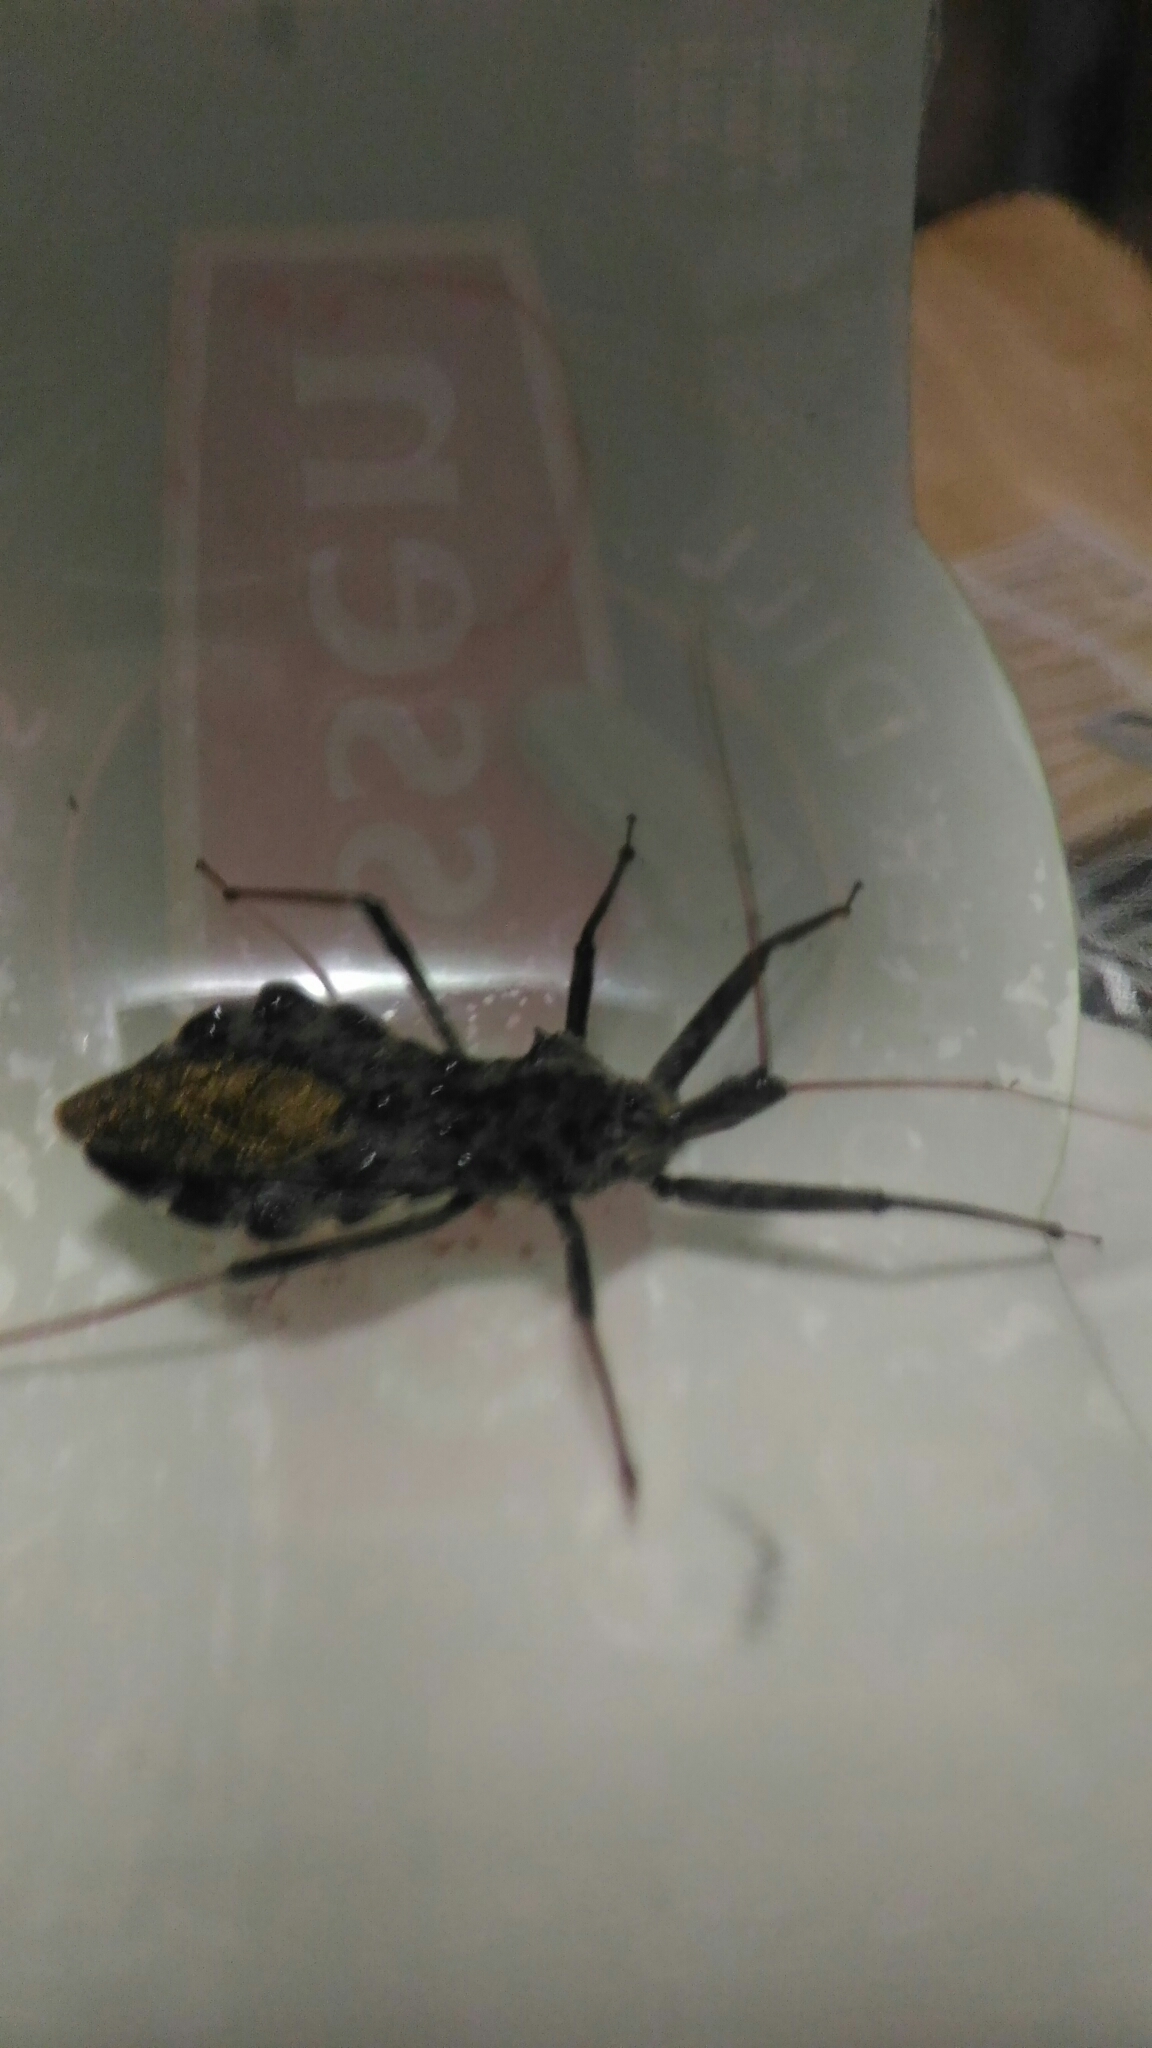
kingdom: Animalia
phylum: Arthropoda
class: Insecta
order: Hemiptera
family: Reduviidae
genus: Arilus
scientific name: Arilus cristatus
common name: North american wheel bug
